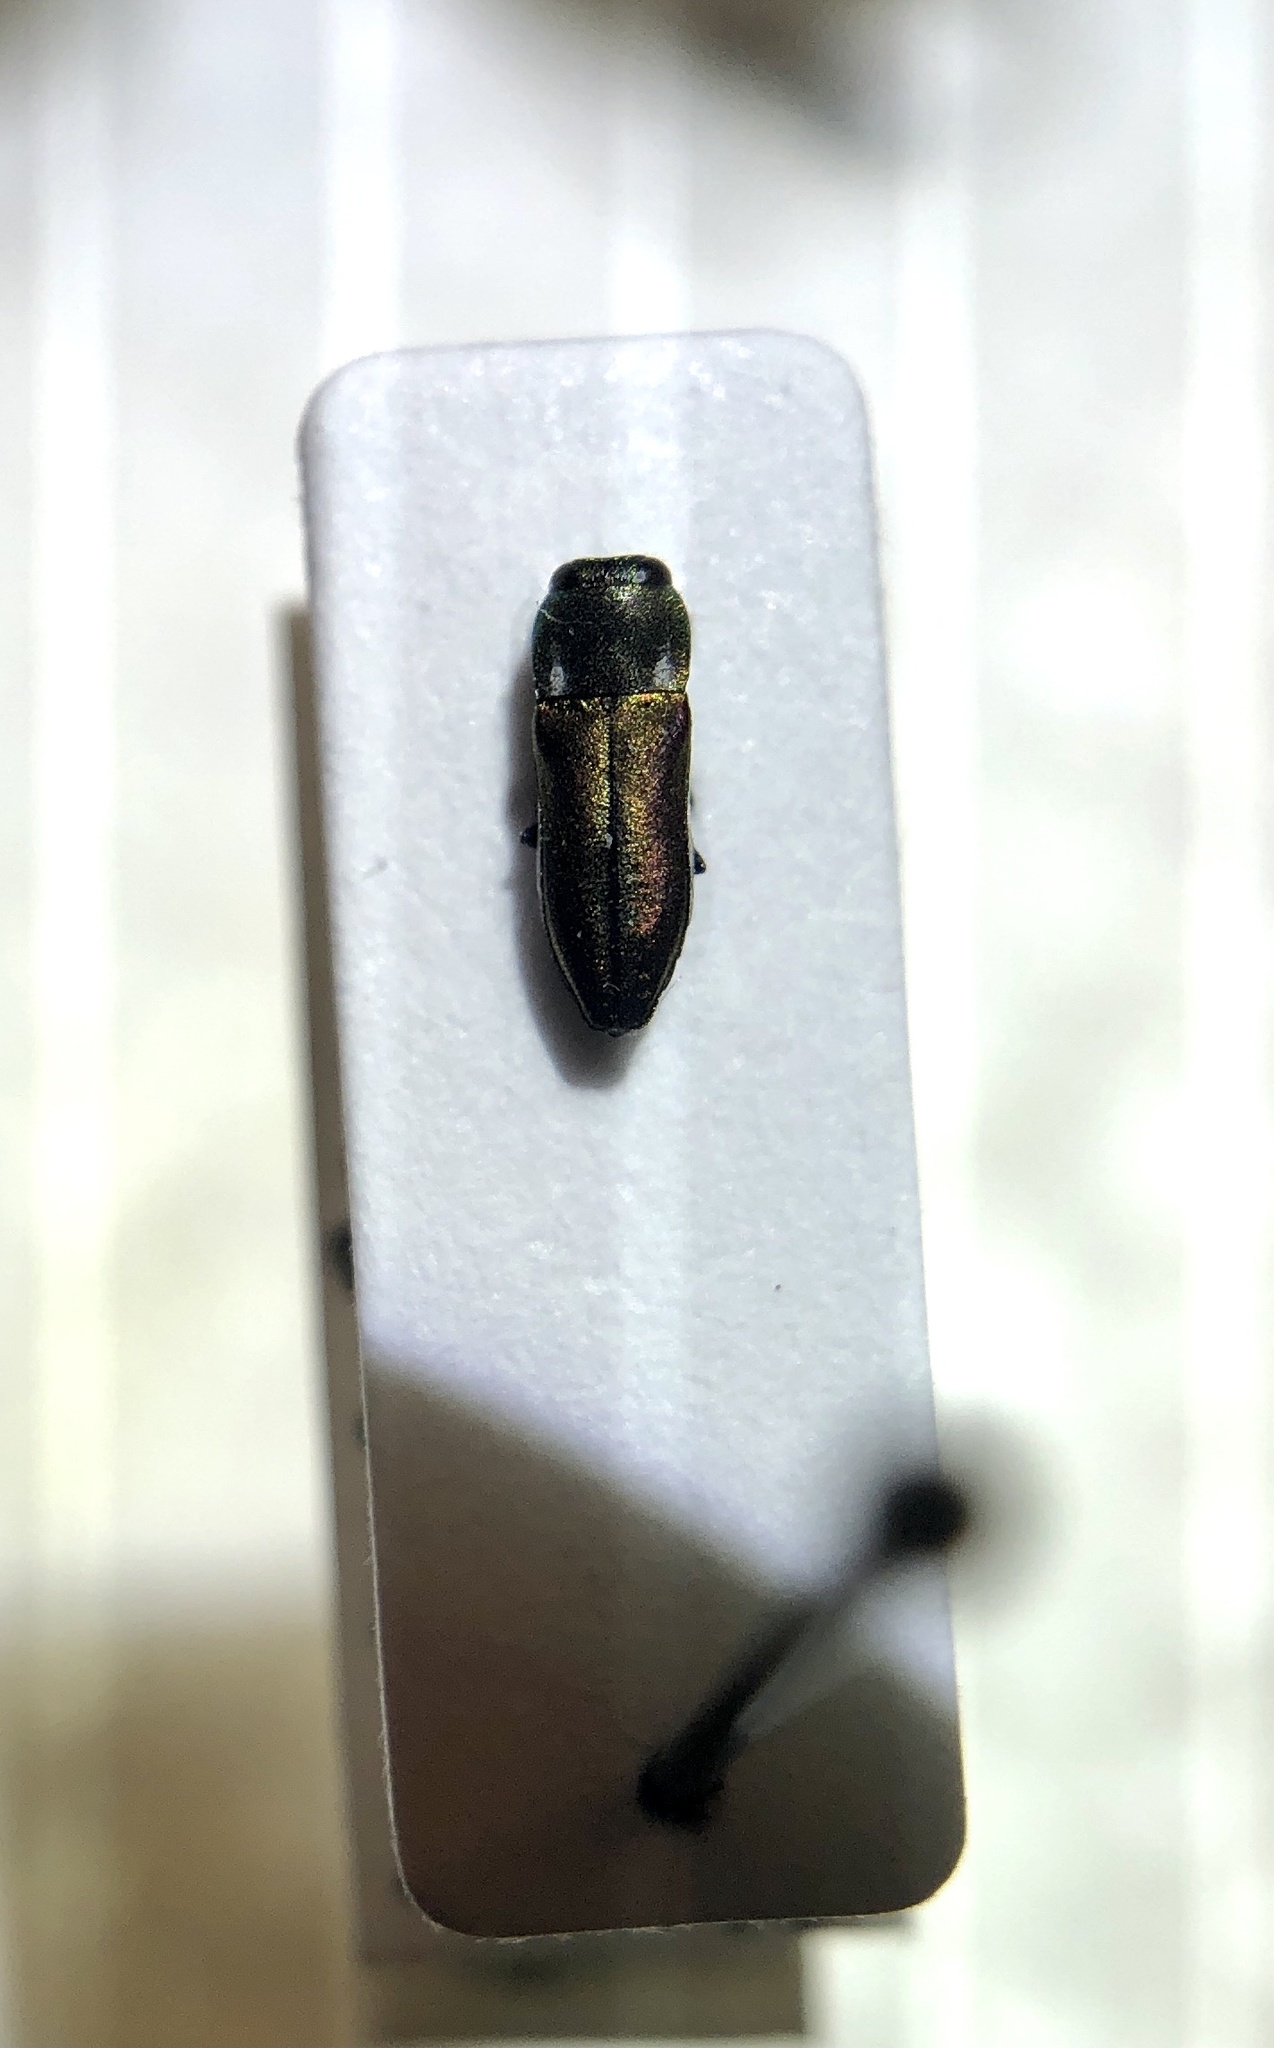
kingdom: Animalia
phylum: Arthropoda
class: Insecta
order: Coleoptera
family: Buprestidae
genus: Anthaxia
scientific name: Anthaxia caseyi
